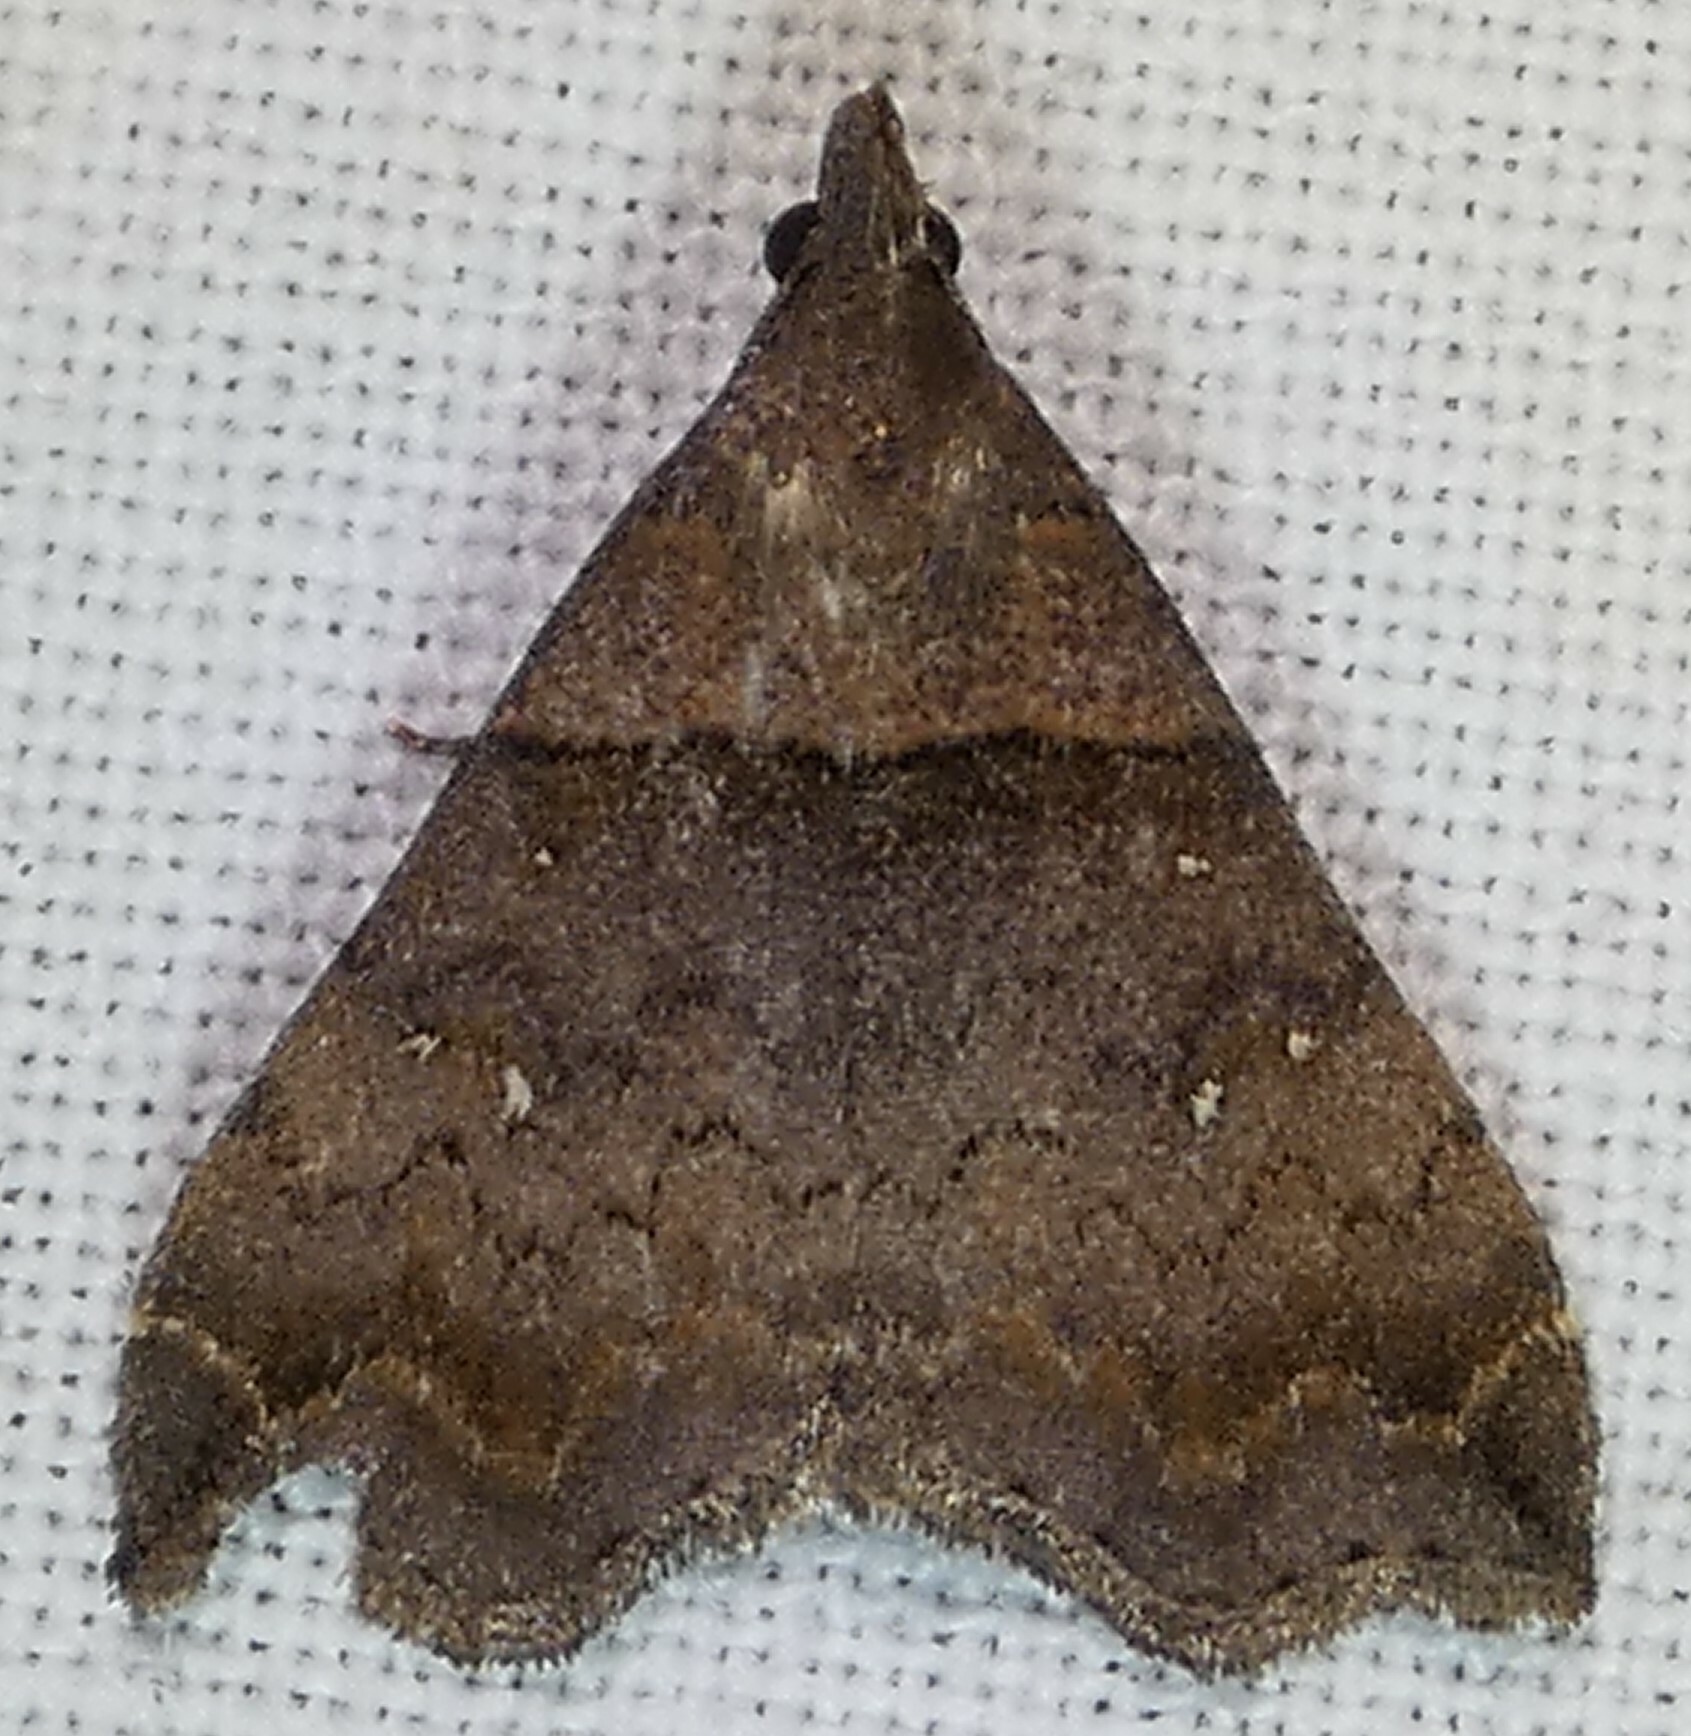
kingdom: Animalia
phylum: Arthropoda
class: Insecta
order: Lepidoptera
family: Erebidae
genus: Lascoria
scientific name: Lascoria ambigualis
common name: Ambiguous moth
